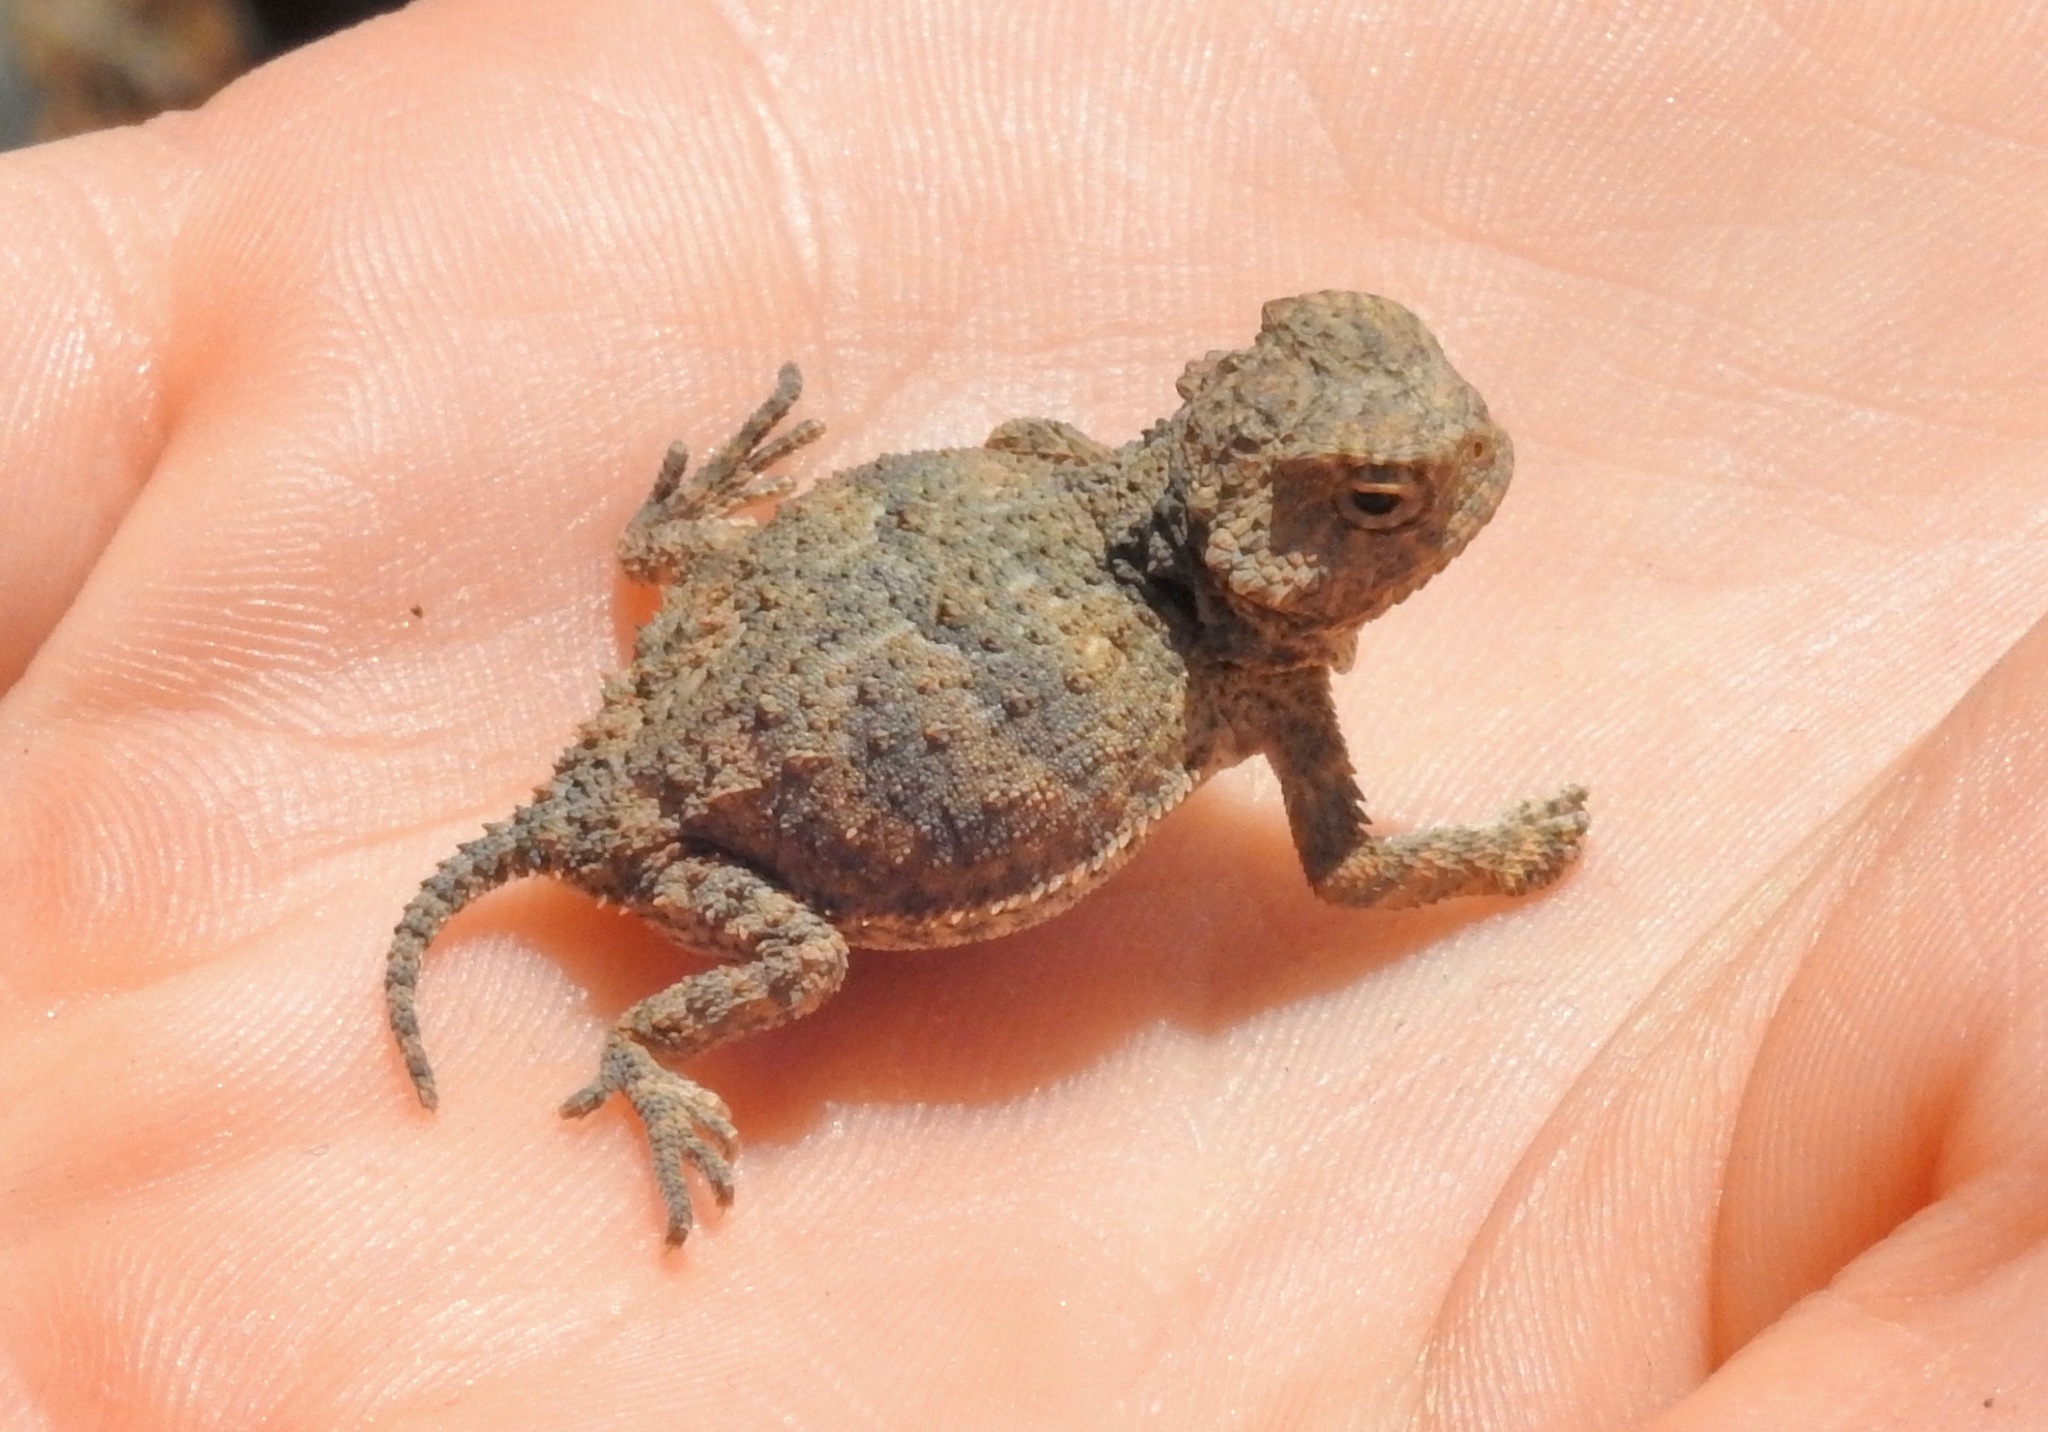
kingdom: Animalia
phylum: Chordata
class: Squamata
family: Phrynosomatidae
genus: Phrynosoma
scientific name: Phrynosoma hernandesi
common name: Greater short-horned lizard
